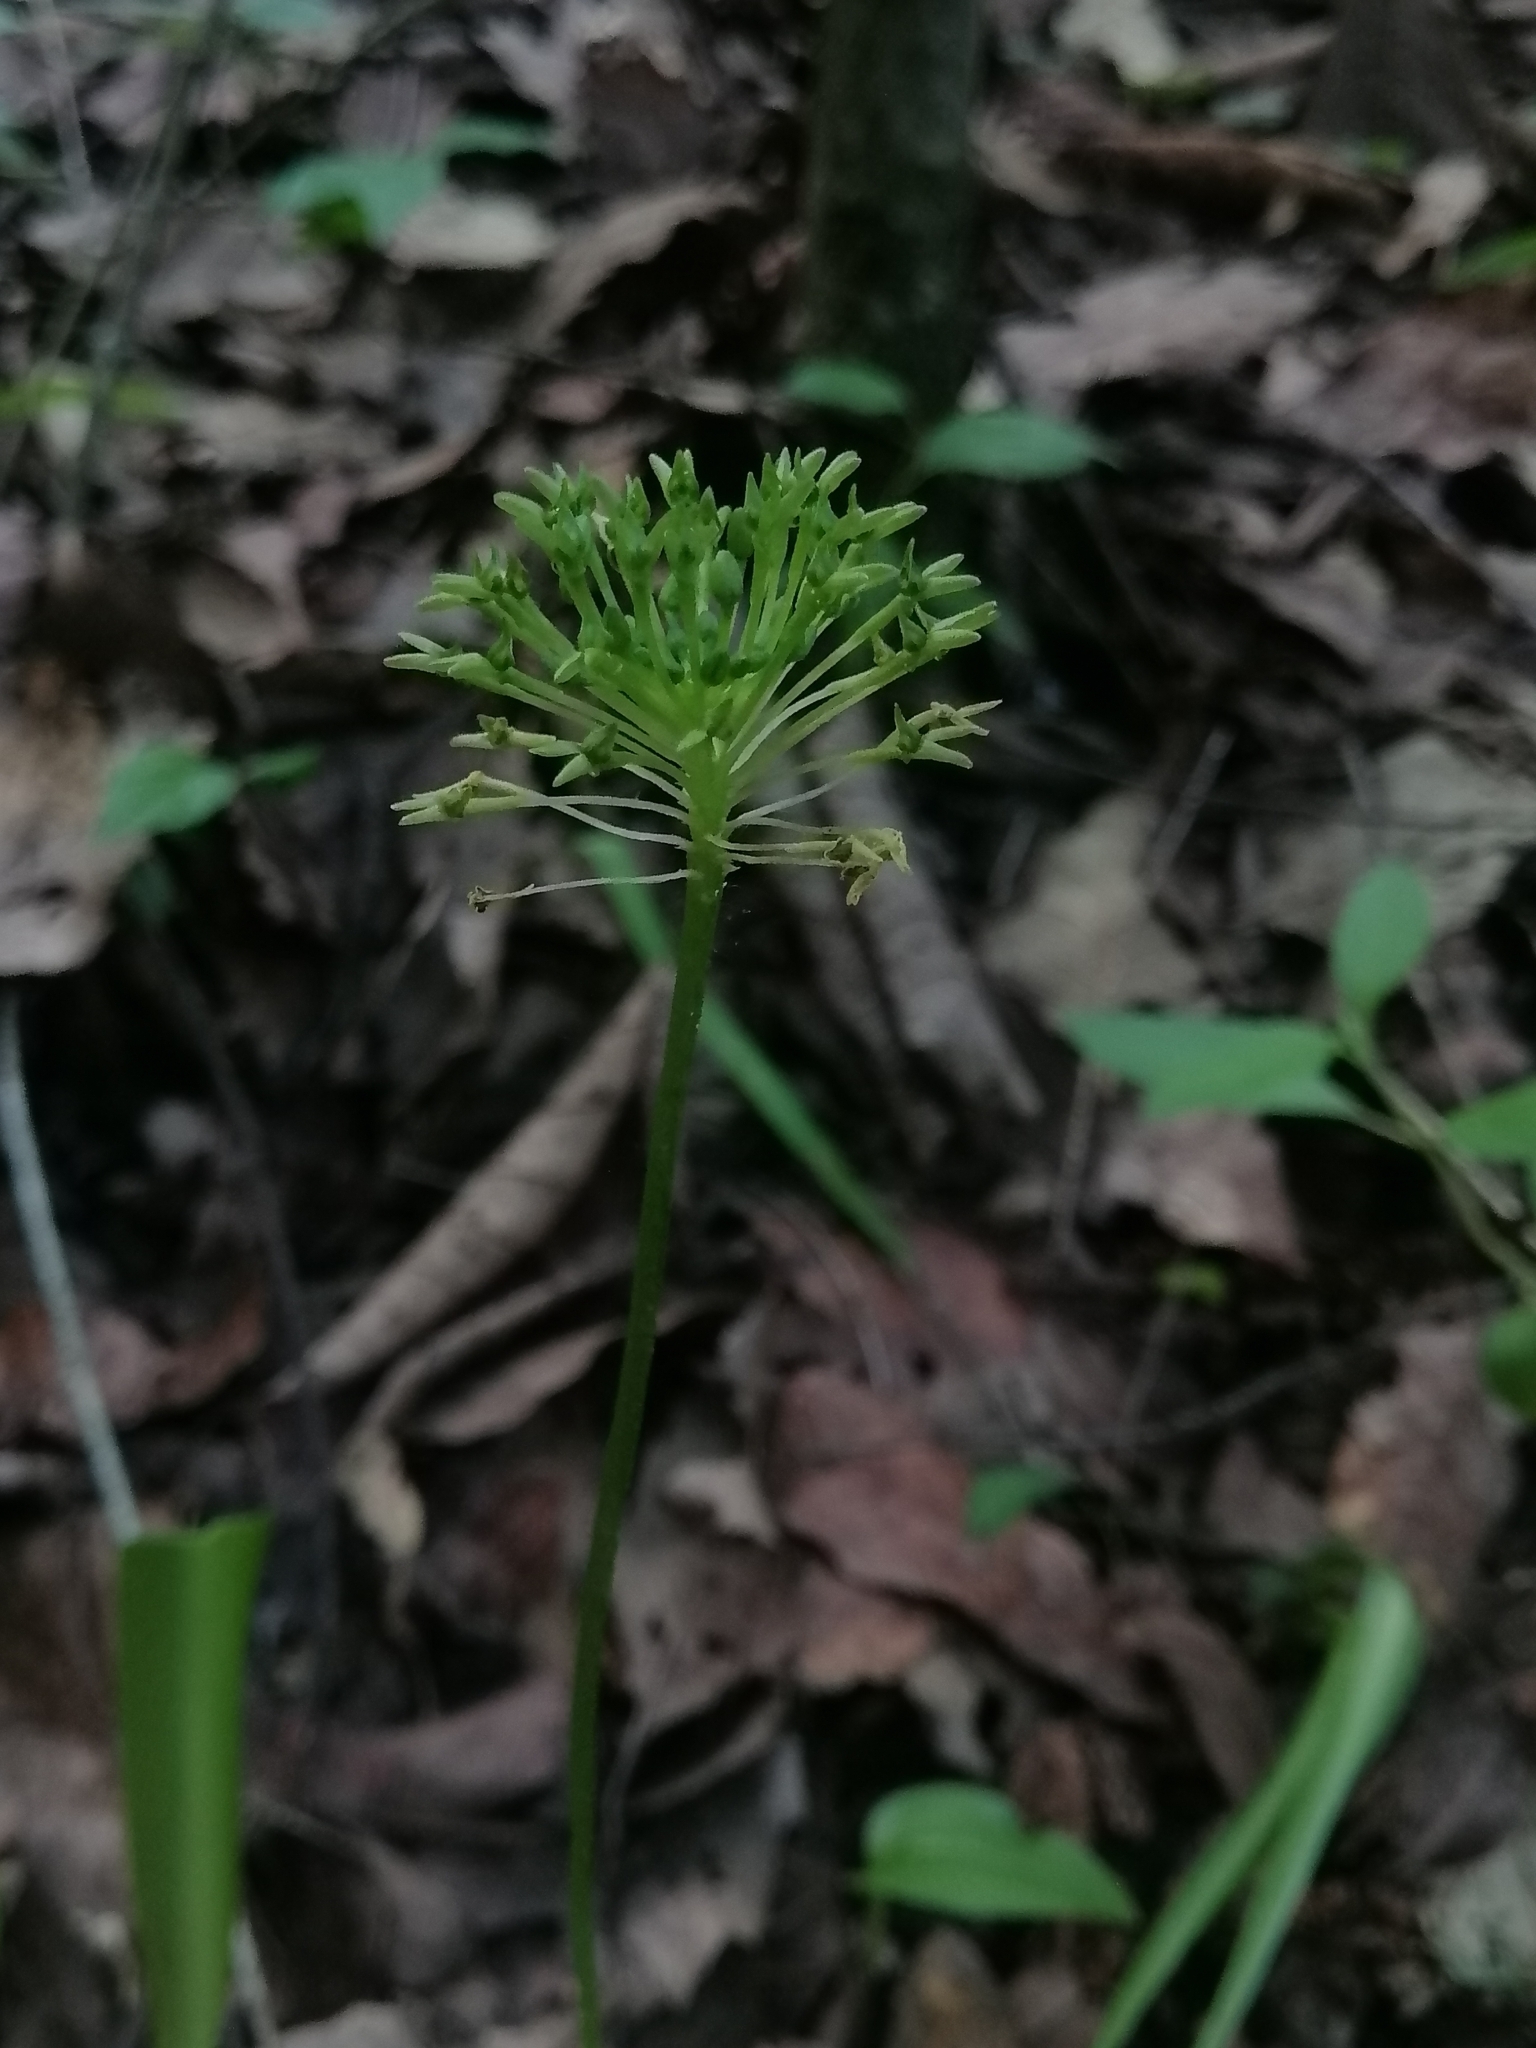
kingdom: Plantae
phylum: Tracheophyta
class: Liliopsida
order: Asparagales
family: Orchidaceae
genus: Malaxis
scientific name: Malaxis brachyrrhynchos
